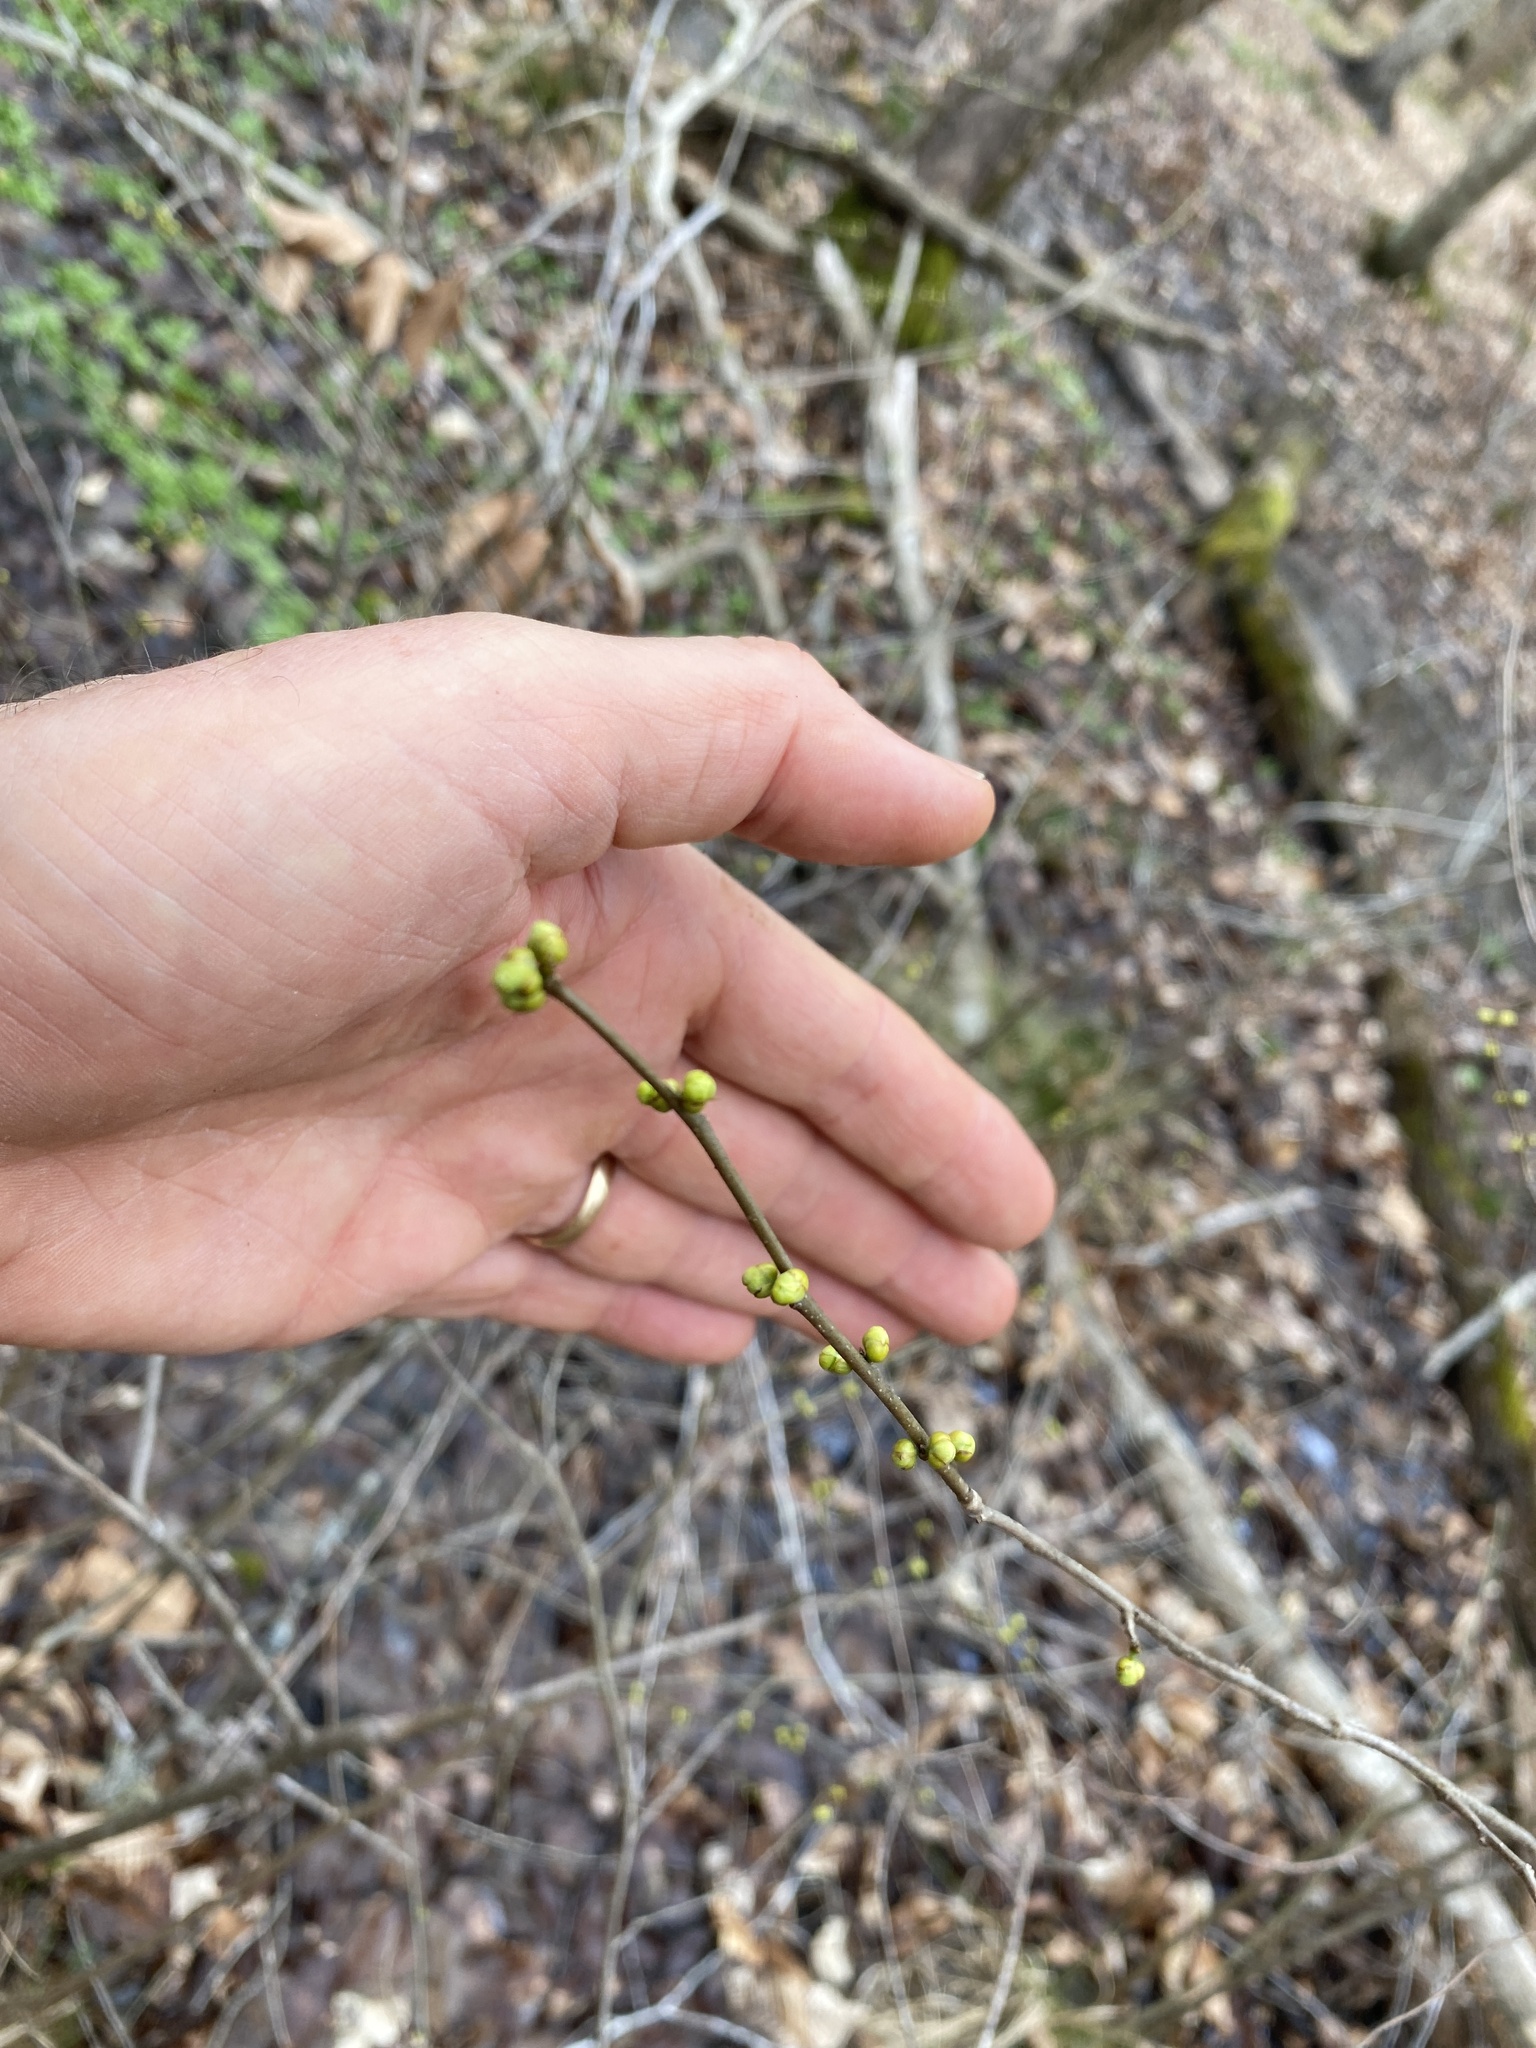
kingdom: Plantae
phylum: Tracheophyta
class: Magnoliopsida
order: Laurales
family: Lauraceae
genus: Lindera
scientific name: Lindera benzoin
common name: Spicebush
